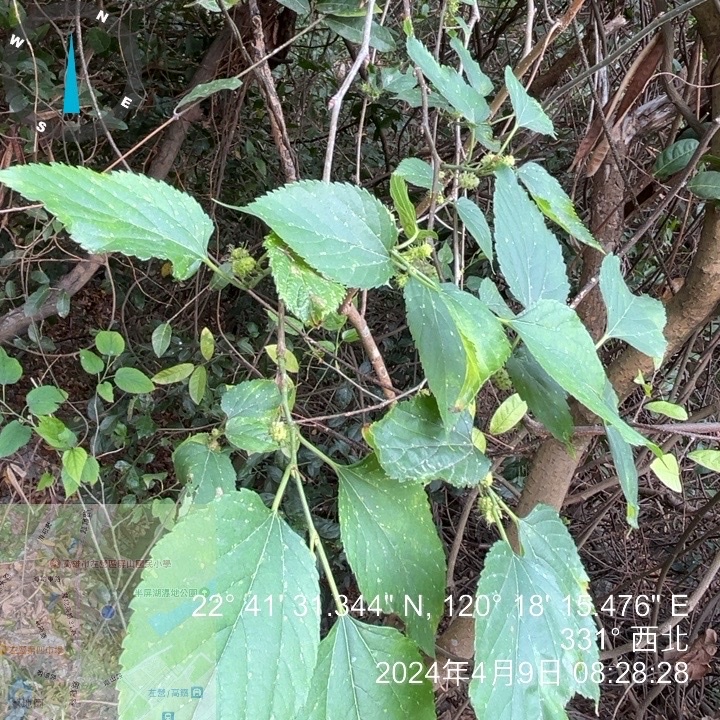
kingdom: Plantae
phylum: Tracheophyta
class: Magnoliopsida
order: Rosales
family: Moraceae
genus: Morus
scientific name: Morus indica
